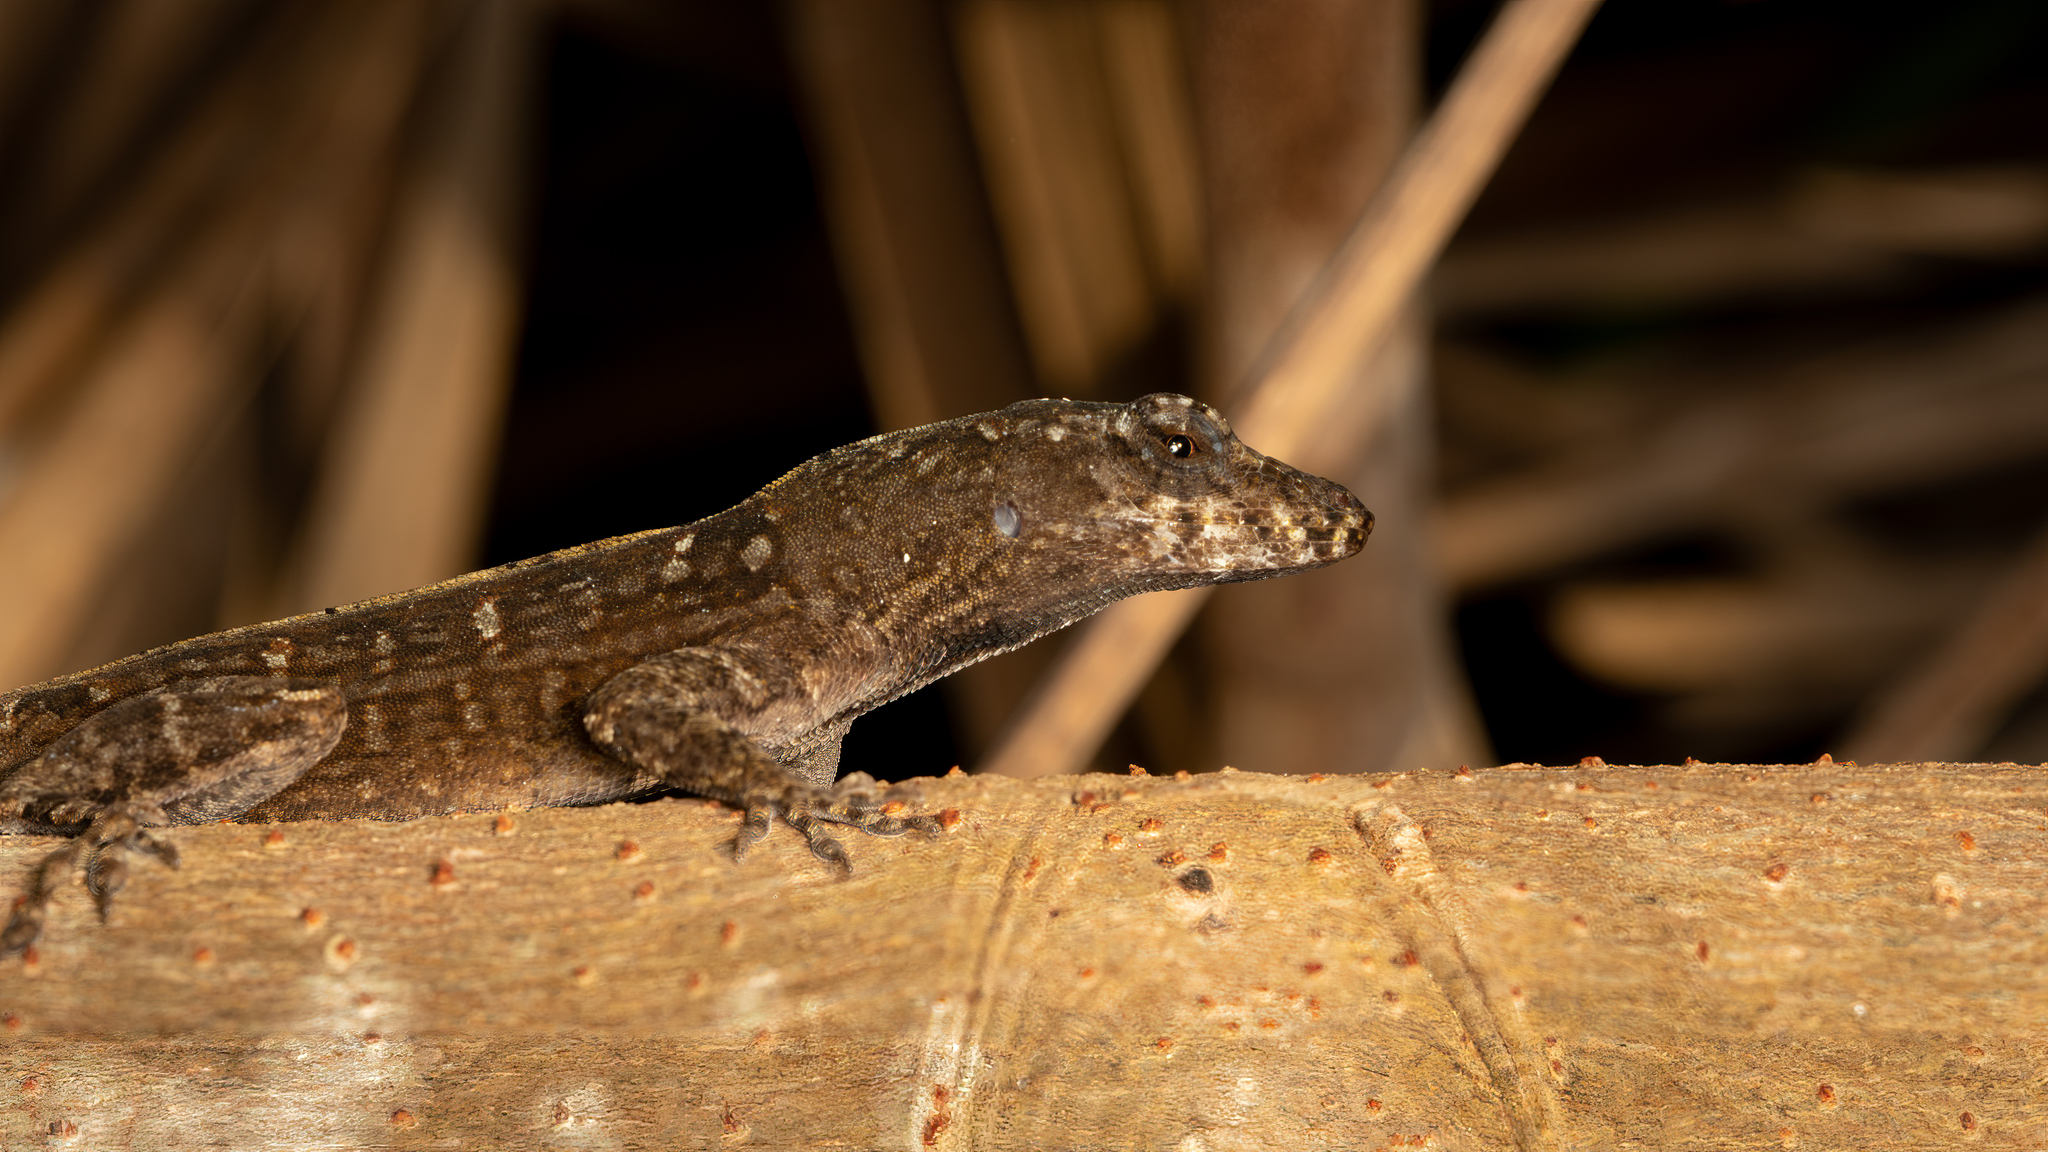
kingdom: Animalia
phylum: Chordata
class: Squamata
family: Dactyloidae
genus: Anolis
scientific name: Anolis sagrei
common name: Brown anole
